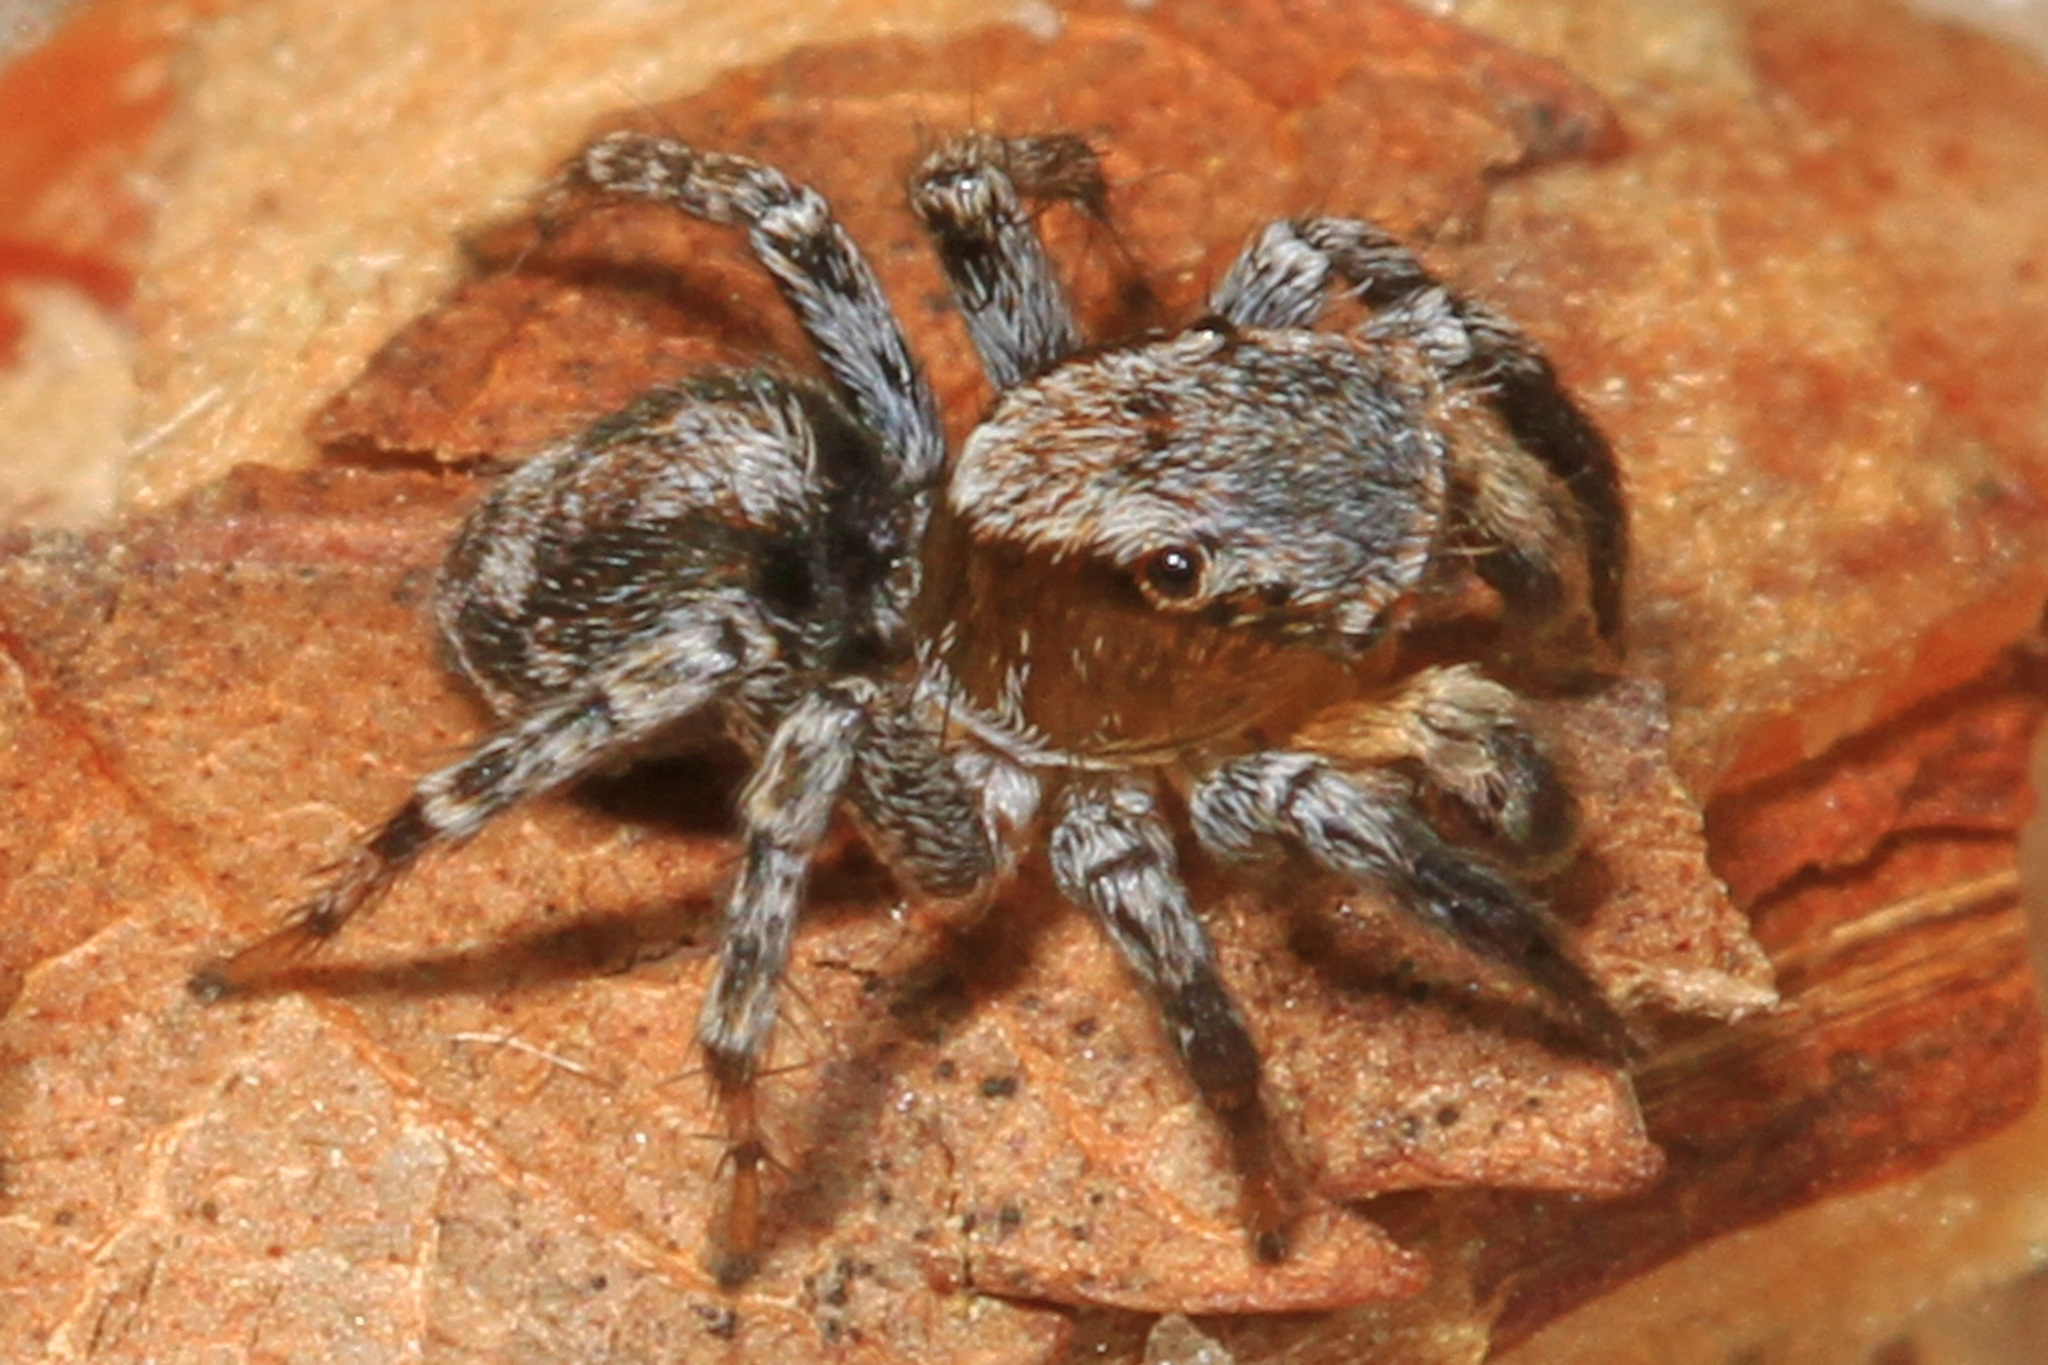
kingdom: Animalia
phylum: Arthropoda
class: Arachnida
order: Araneae
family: Salticidae
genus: Naphrys
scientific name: Naphrys pulex
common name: Flea jumping spider
